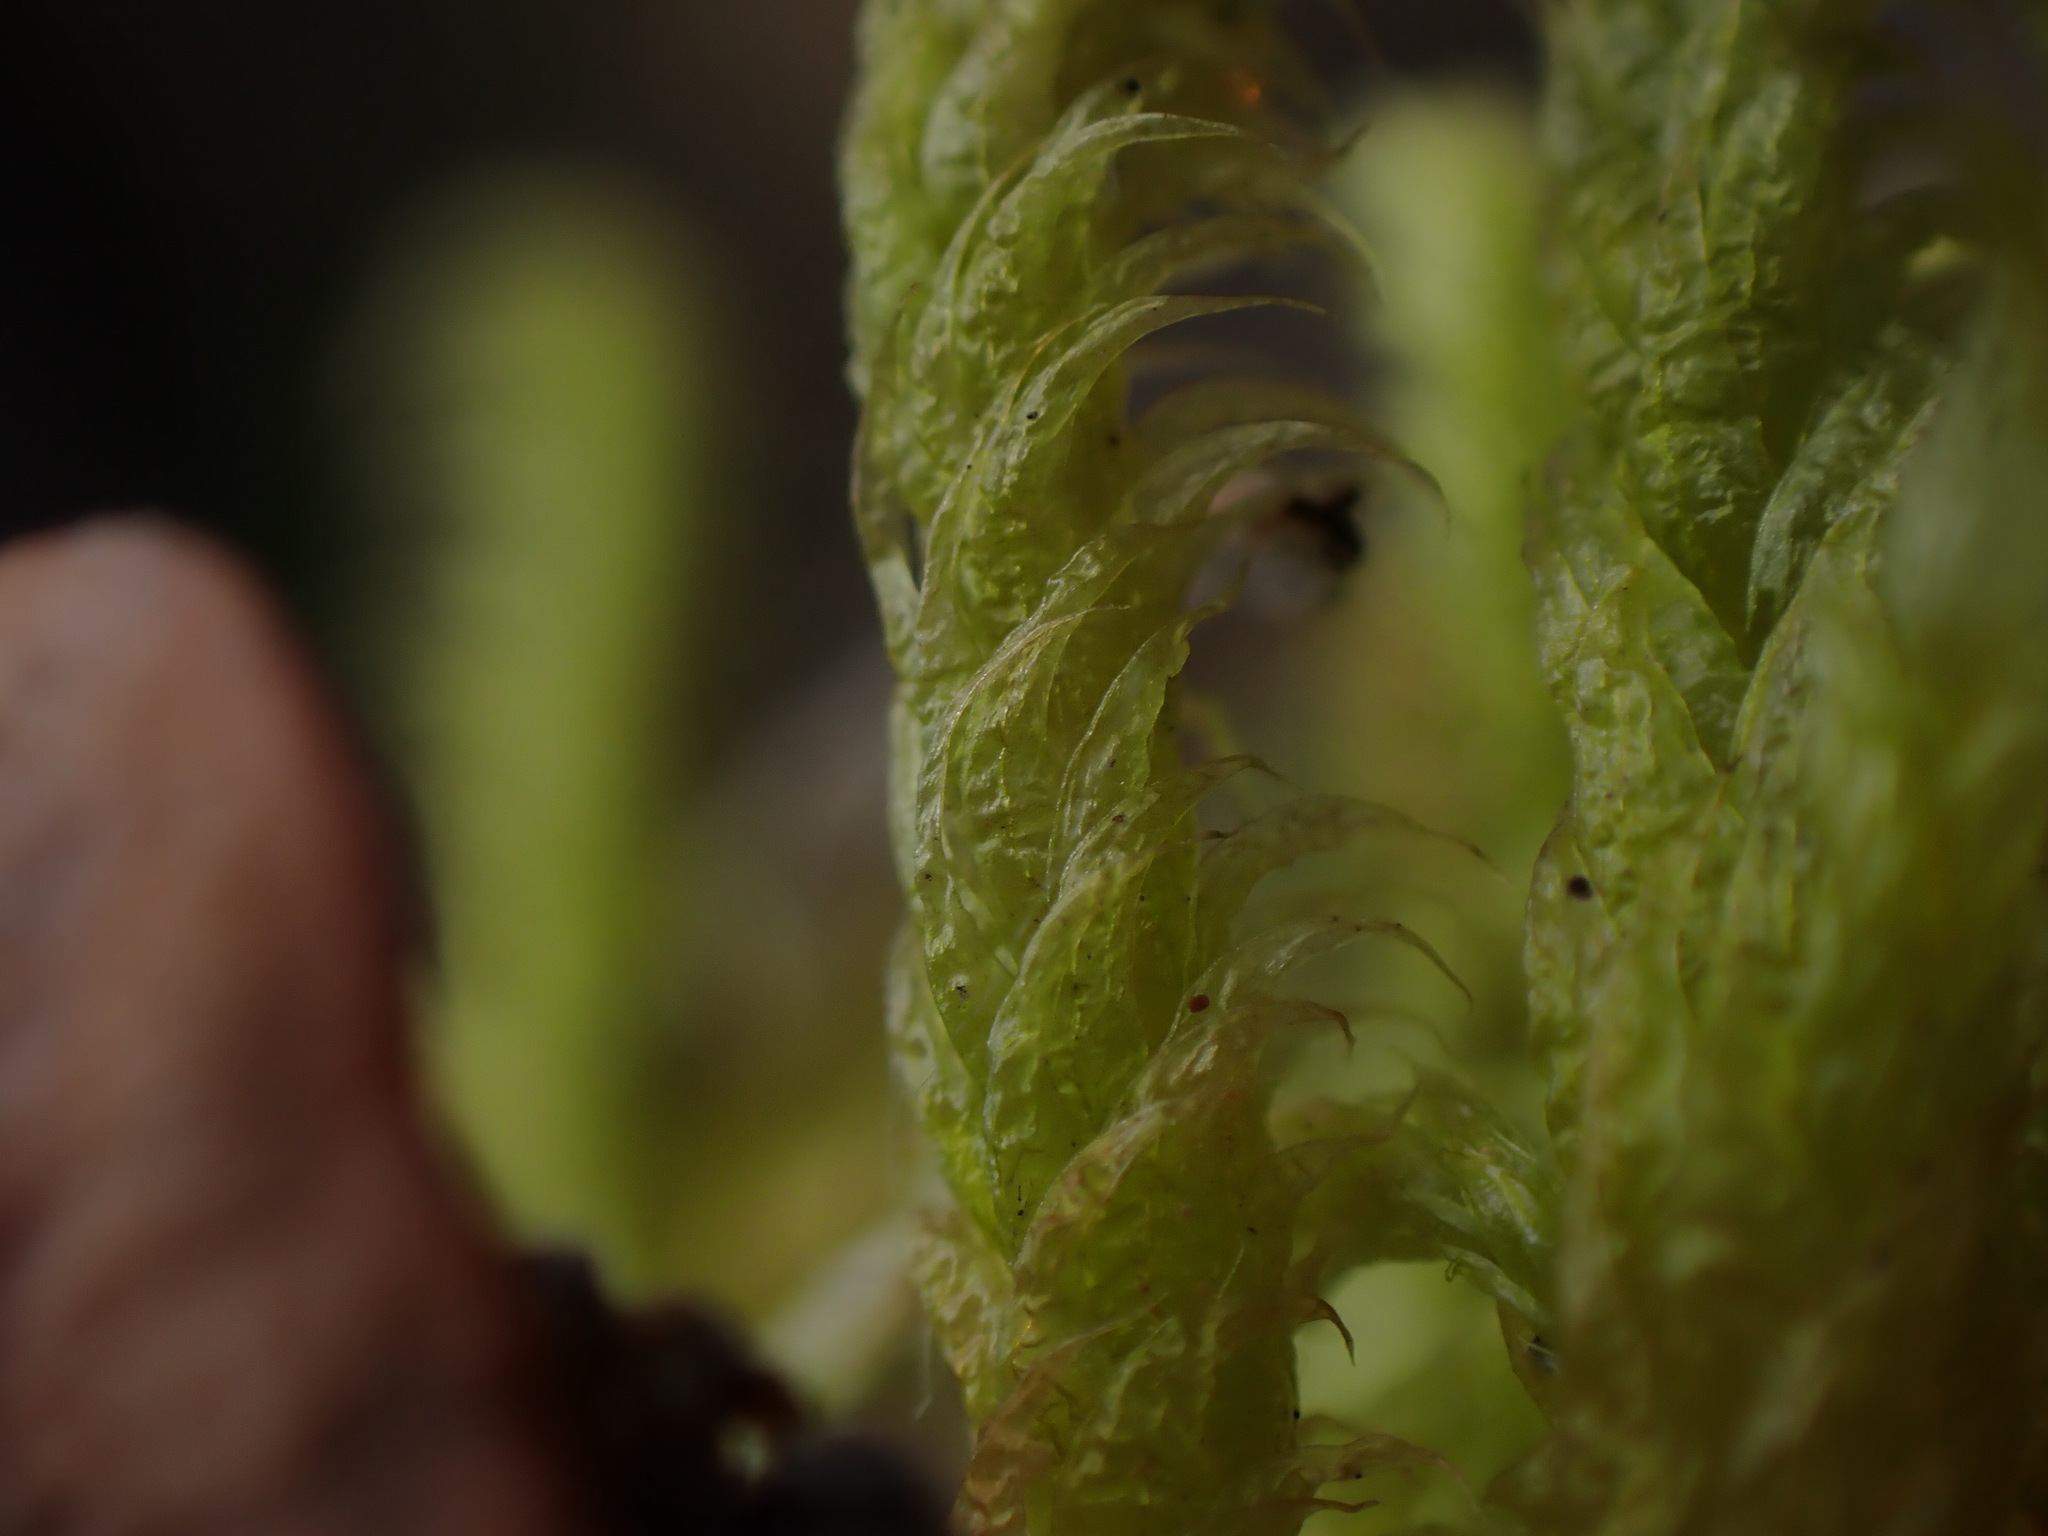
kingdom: Plantae
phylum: Bryophyta
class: Bryopsida
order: Hypnales
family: Rhytidiaceae
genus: Rhytidium
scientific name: Rhytidium rugosum
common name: Wrinkle-leaved moss
